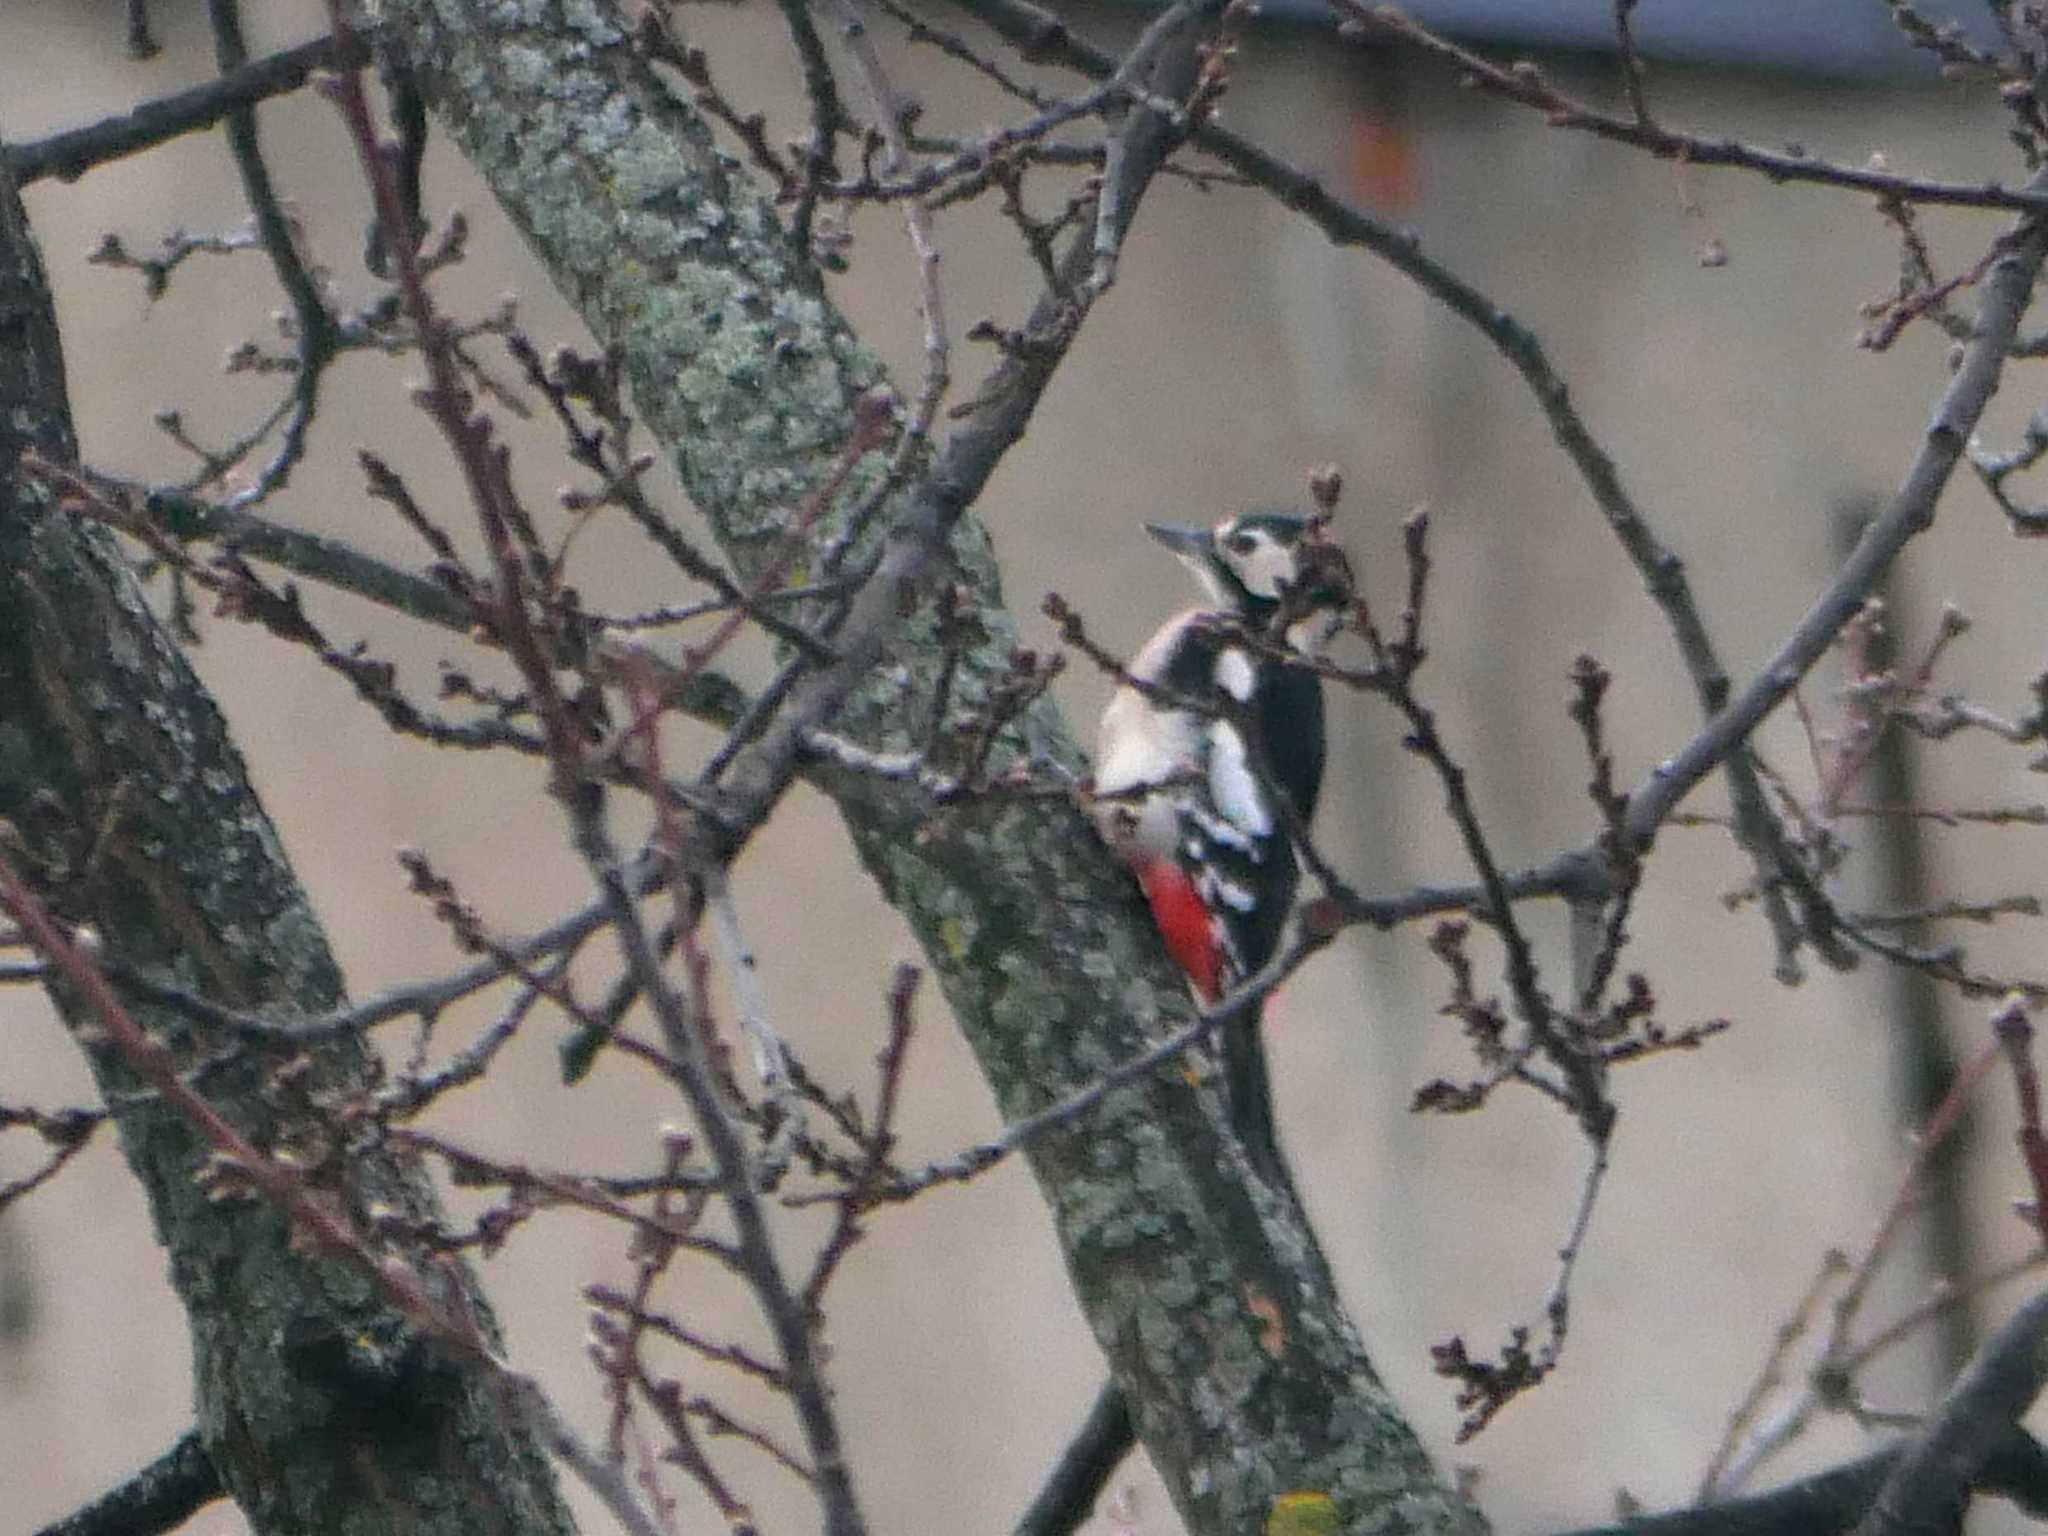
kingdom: Animalia
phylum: Chordata
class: Aves
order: Piciformes
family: Picidae
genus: Dendrocopos
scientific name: Dendrocopos major
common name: Great spotted woodpecker
